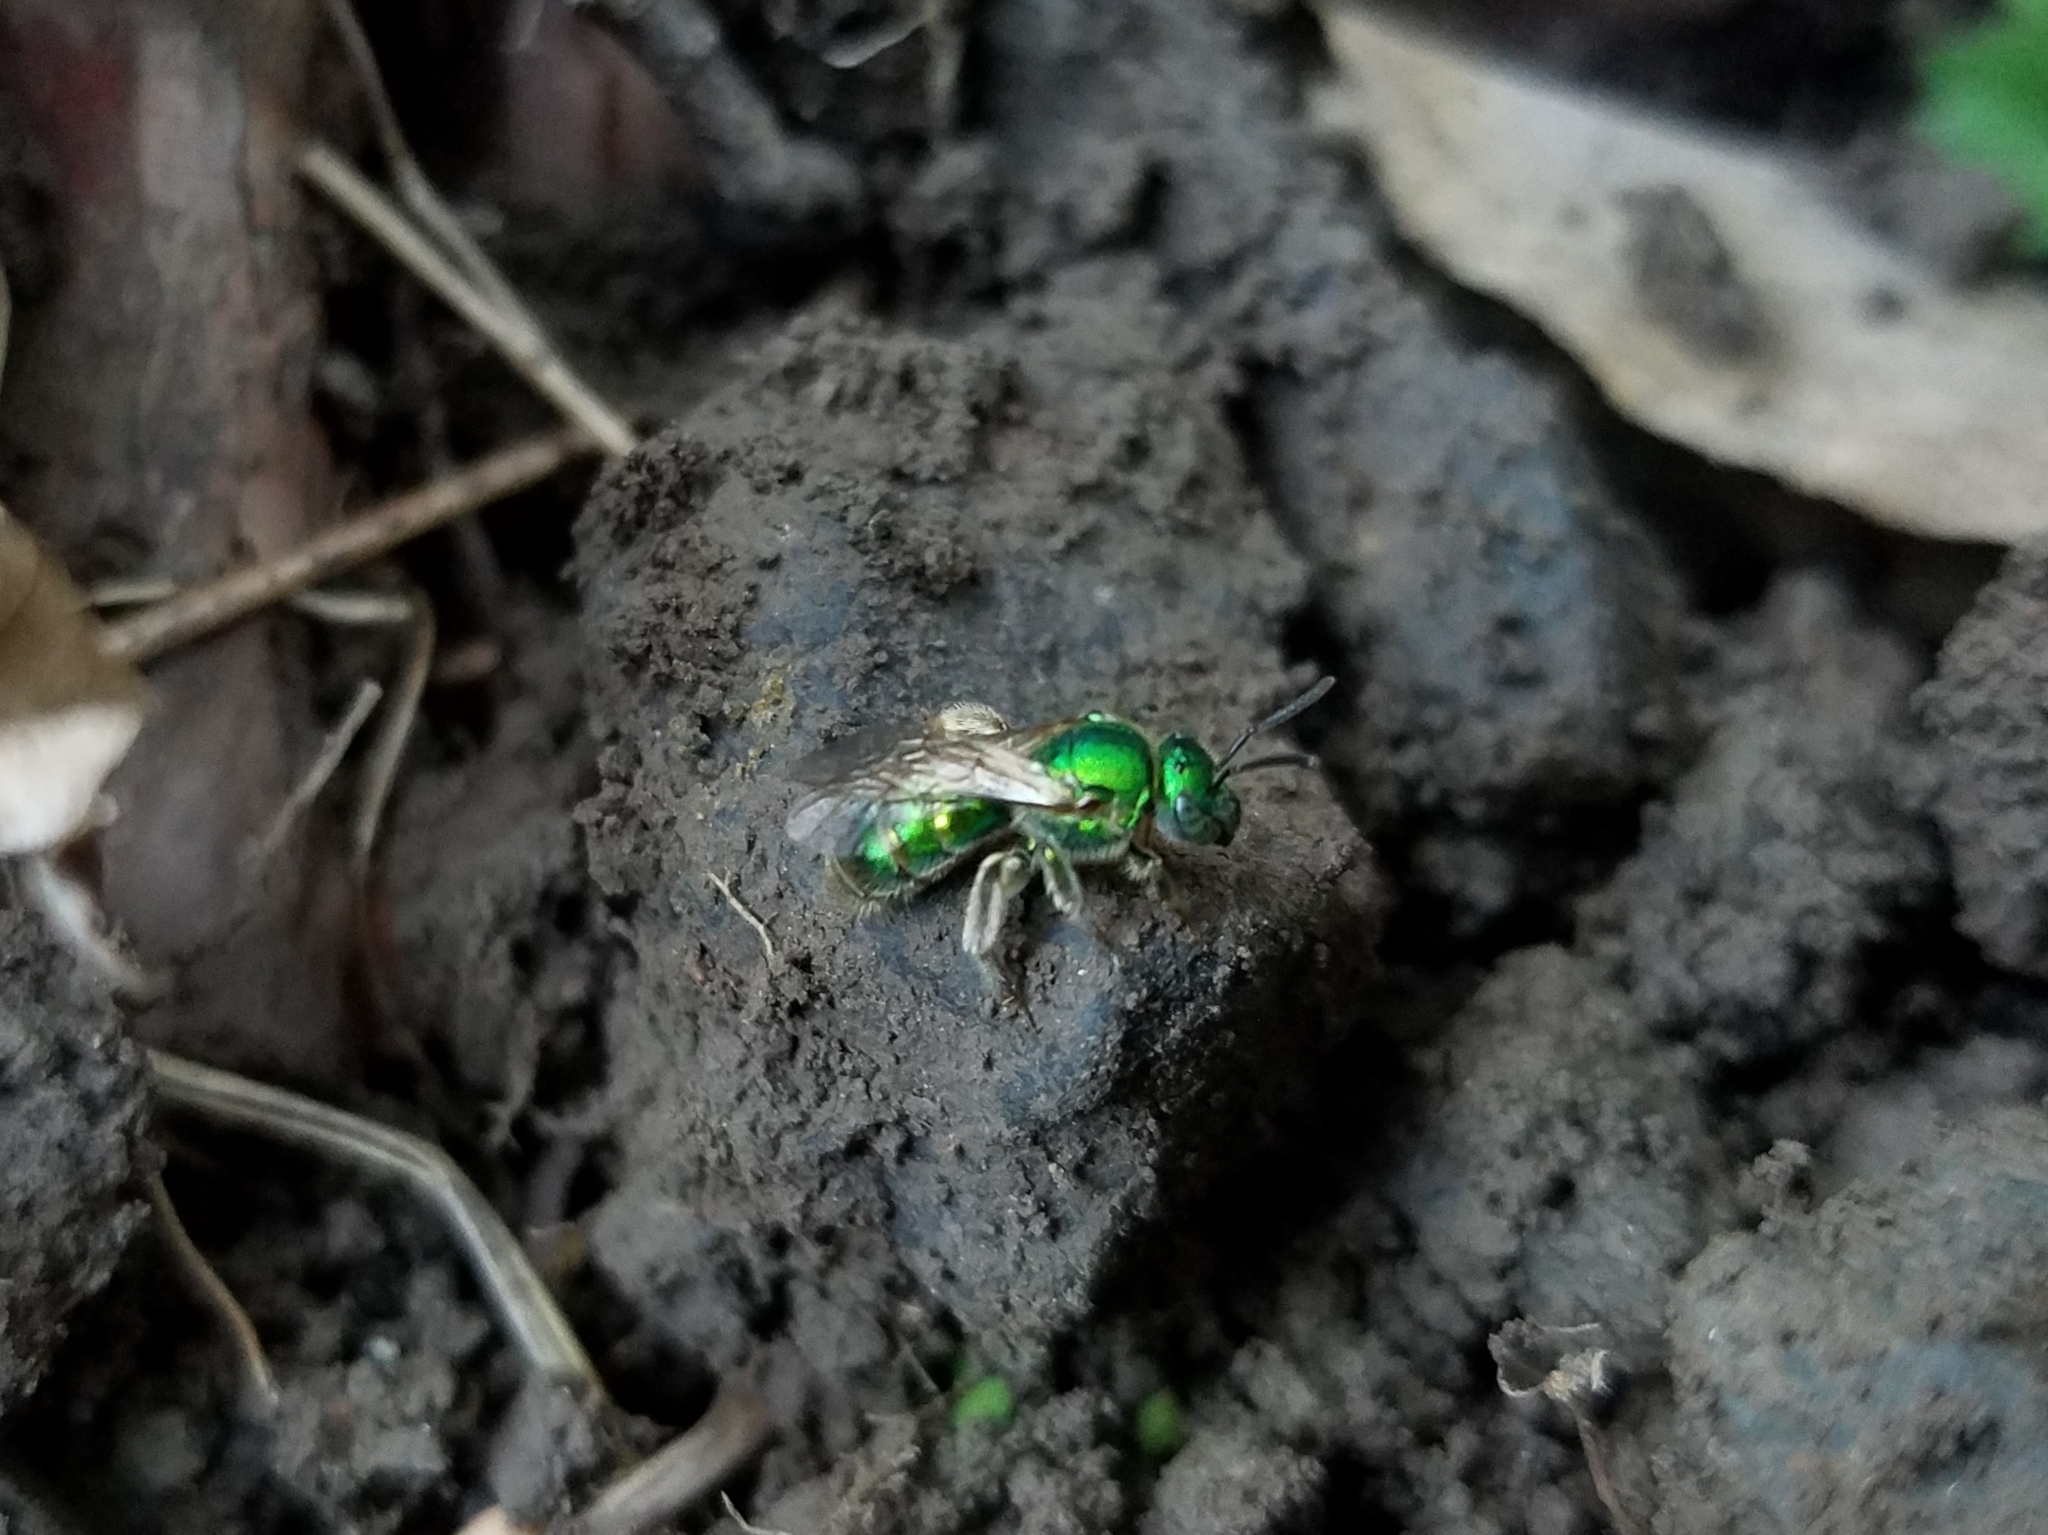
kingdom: Animalia
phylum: Arthropoda
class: Insecta
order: Hymenoptera
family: Halictidae
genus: Augochloropsis
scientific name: Augochloropsis viridula
